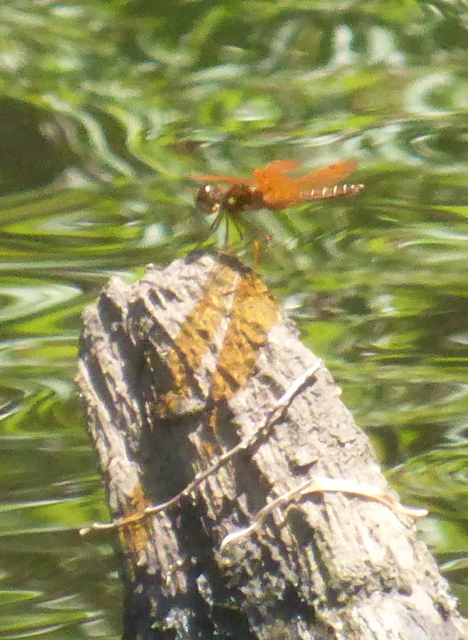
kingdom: Animalia
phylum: Arthropoda
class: Insecta
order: Odonata
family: Libellulidae
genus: Perithemis
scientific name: Perithemis tenera
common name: Eastern amberwing
